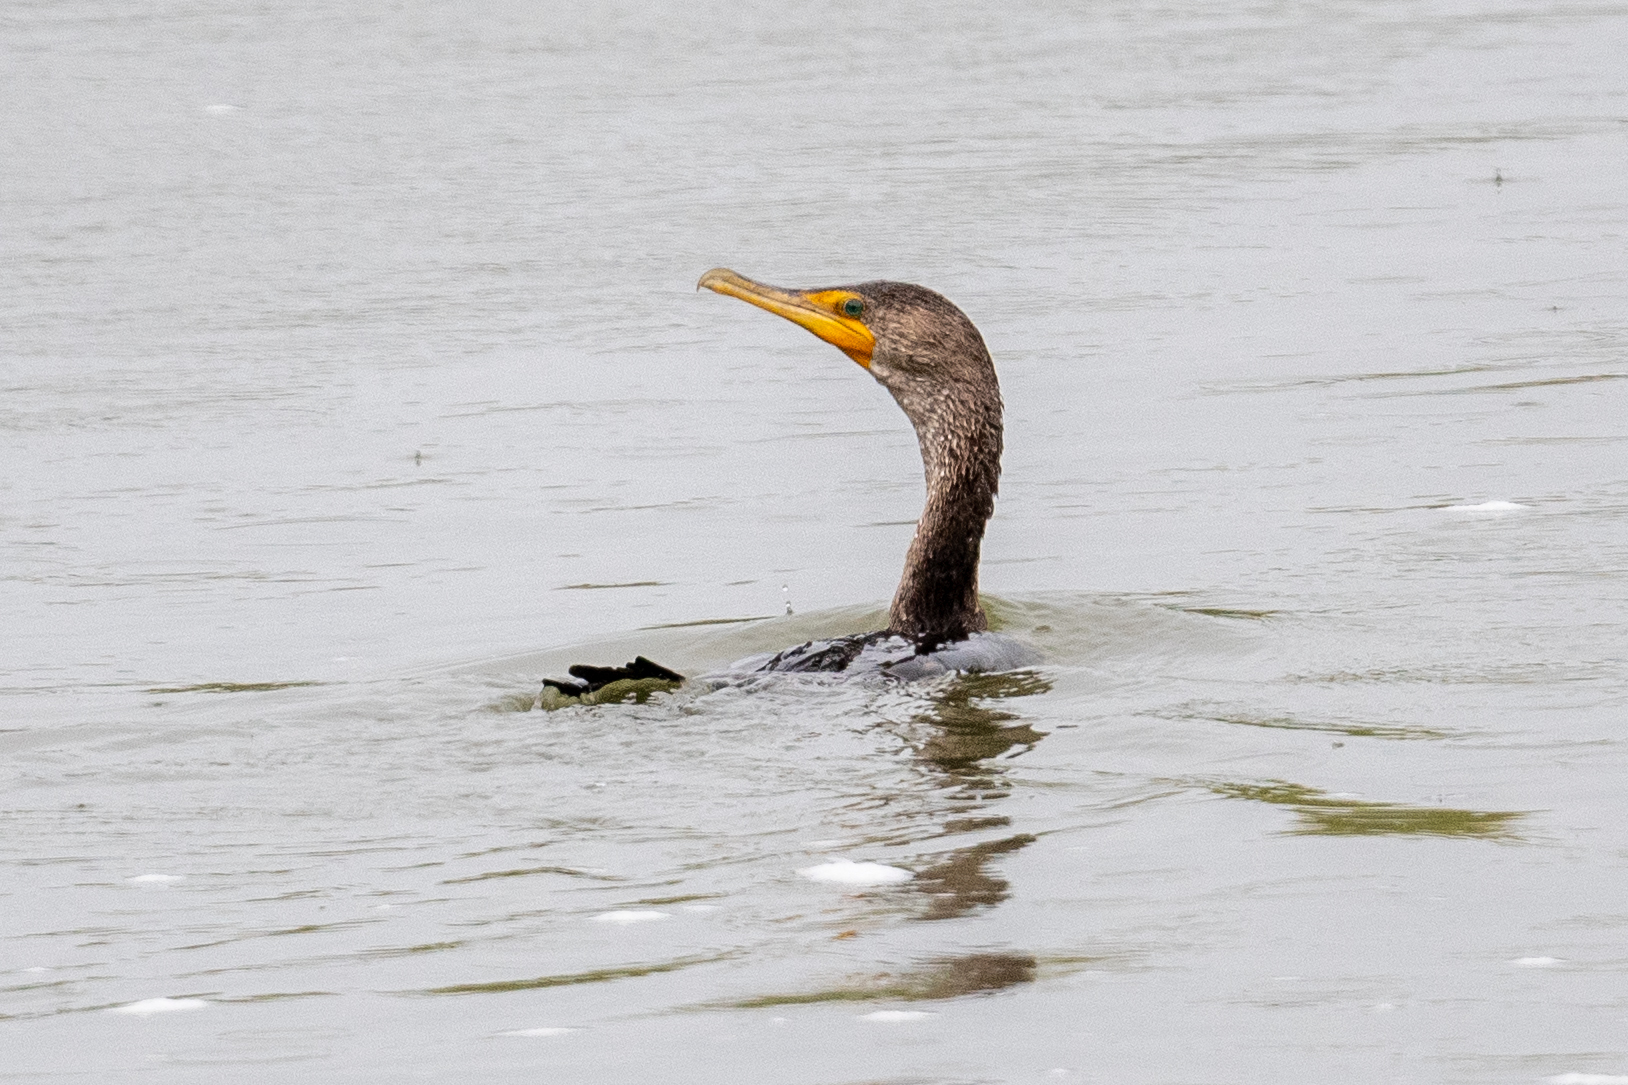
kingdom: Animalia
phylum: Chordata
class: Aves
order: Suliformes
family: Phalacrocoracidae
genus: Phalacrocorax
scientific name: Phalacrocorax auritus
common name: Double-crested cormorant
